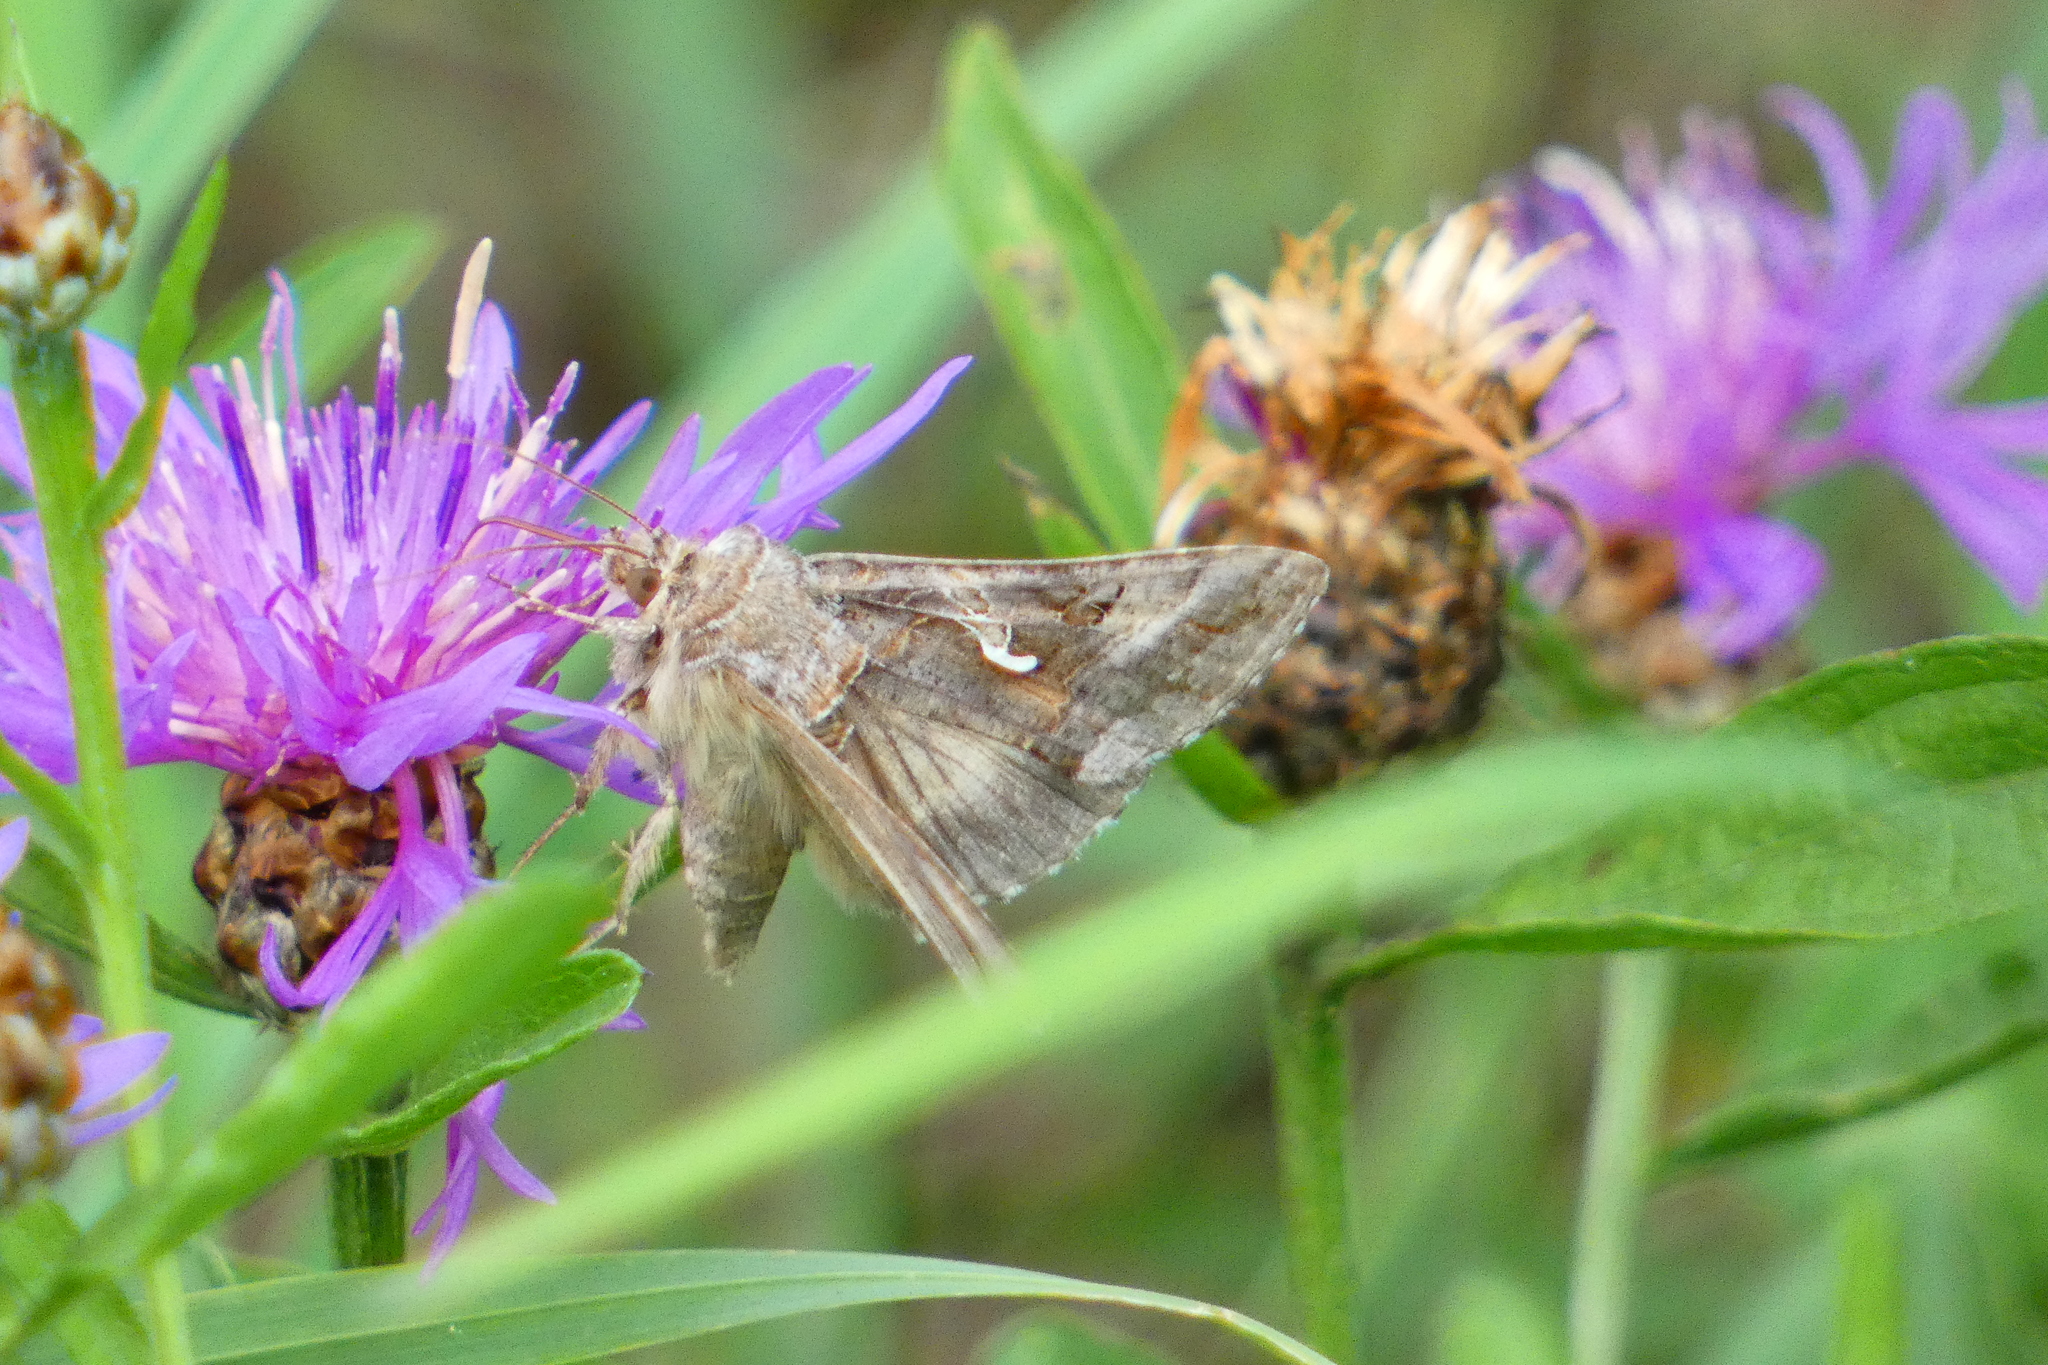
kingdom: Animalia
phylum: Arthropoda
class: Insecta
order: Lepidoptera
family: Noctuidae
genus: Autographa
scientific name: Autographa gamma
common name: Silver y
